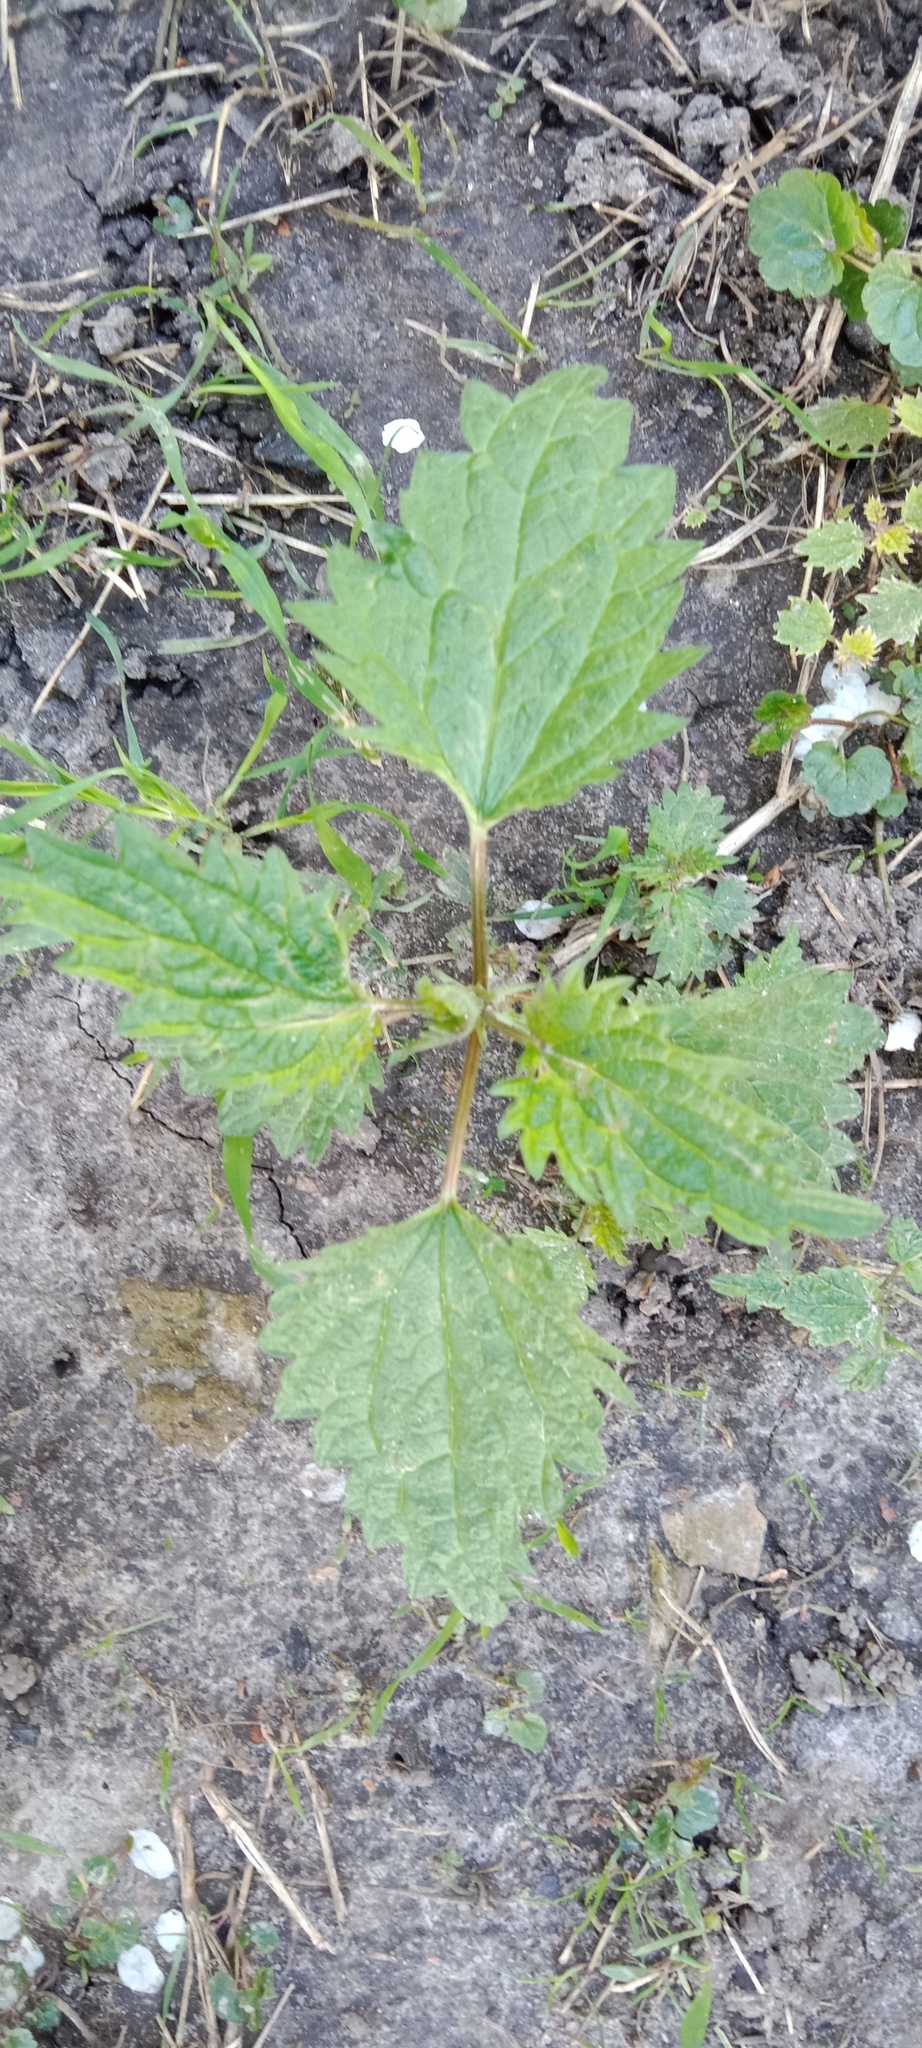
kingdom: Plantae
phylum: Tracheophyta
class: Magnoliopsida
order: Rosales
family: Urticaceae
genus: Urtica
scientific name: Urtica dioica
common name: Common nettle
